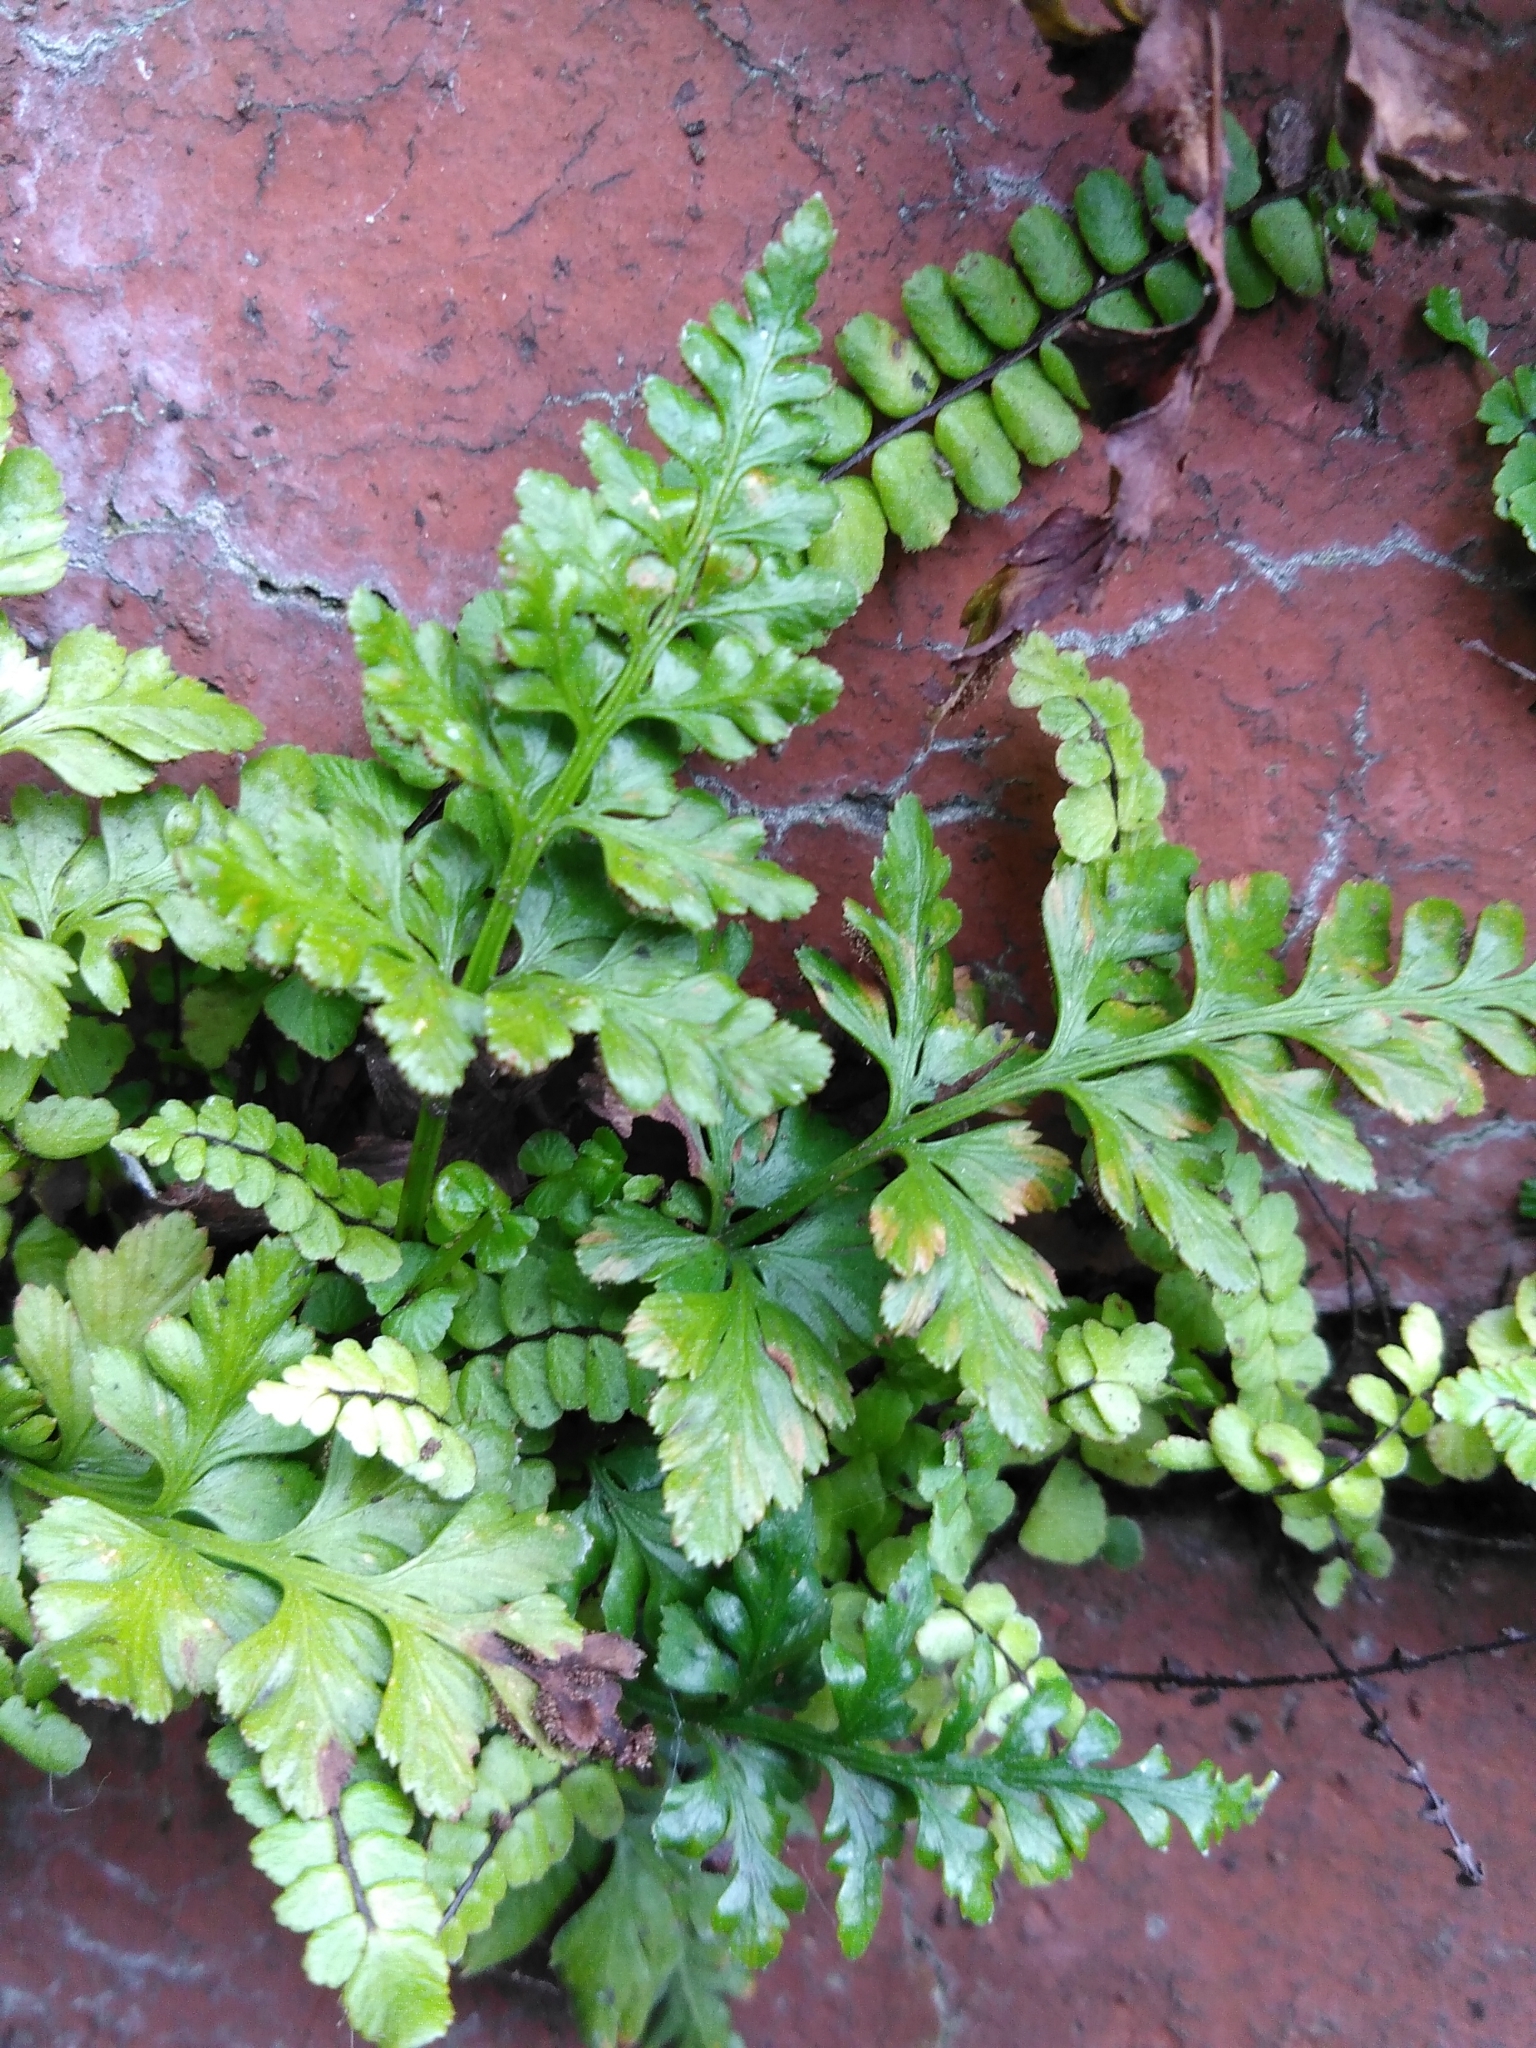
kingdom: Plantae
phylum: Tracheophyta
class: Polypodiopsida
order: Polypodiales
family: Aspleniaceae
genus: Asplenium
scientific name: Asplenium adiantum-nigrum
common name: Black spleenwort
